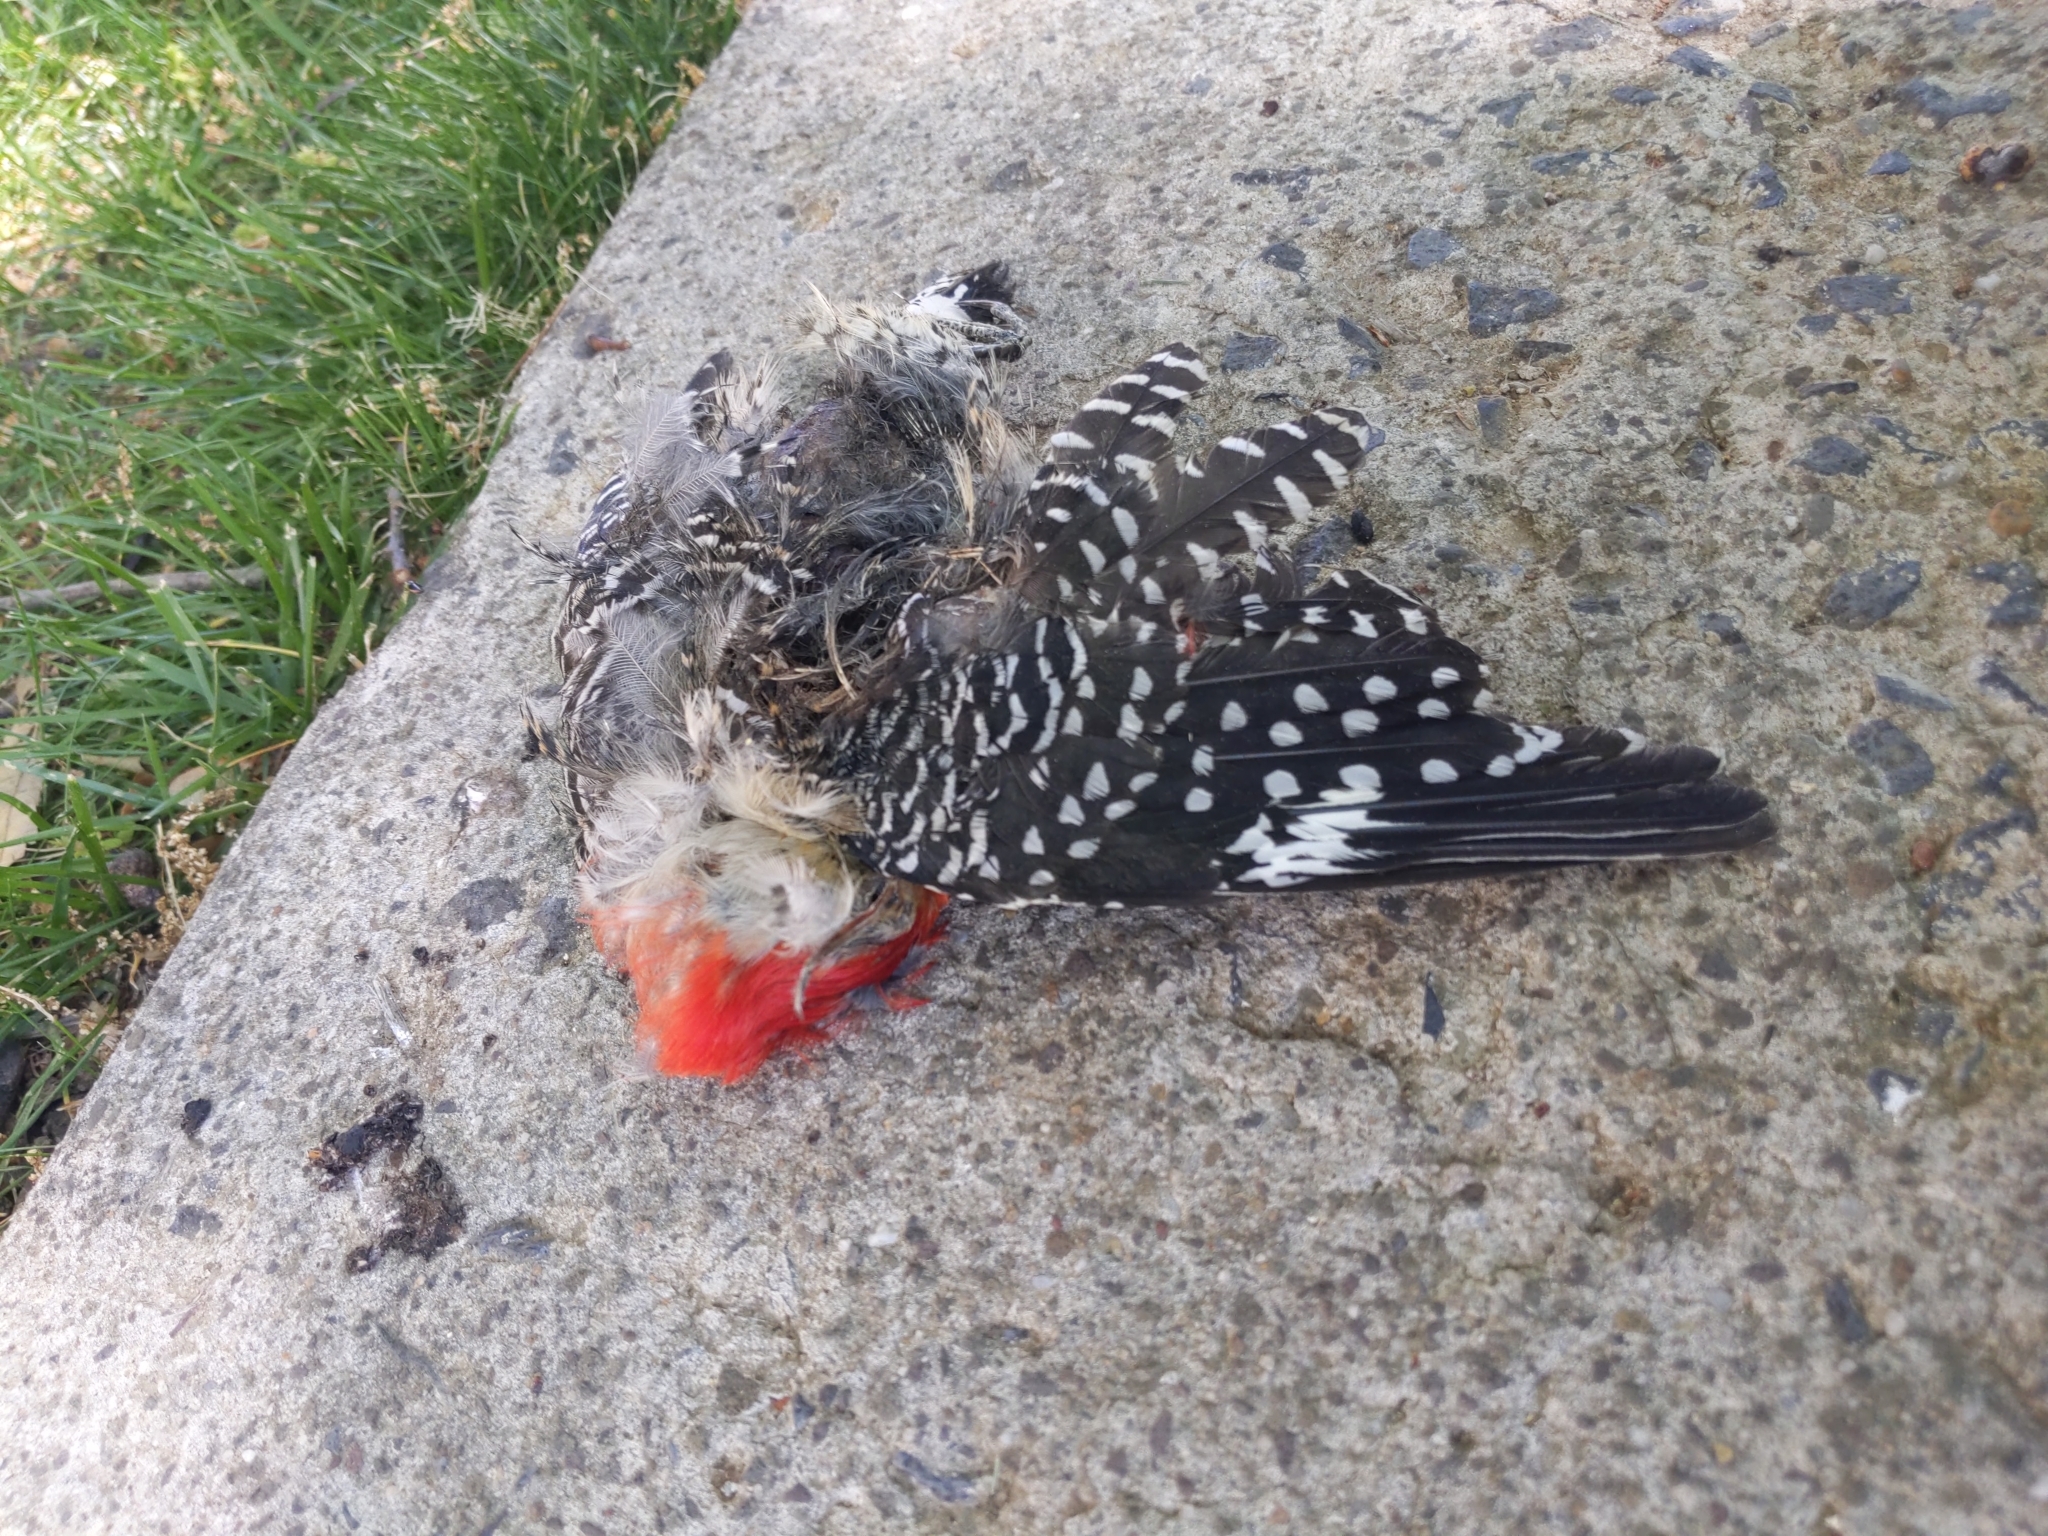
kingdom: Animalia
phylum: Chordata
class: Aves
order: Piciformes
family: Picidae
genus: Melanerpes
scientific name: Melanerpes carolinus
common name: Red-bellied woodpecker
